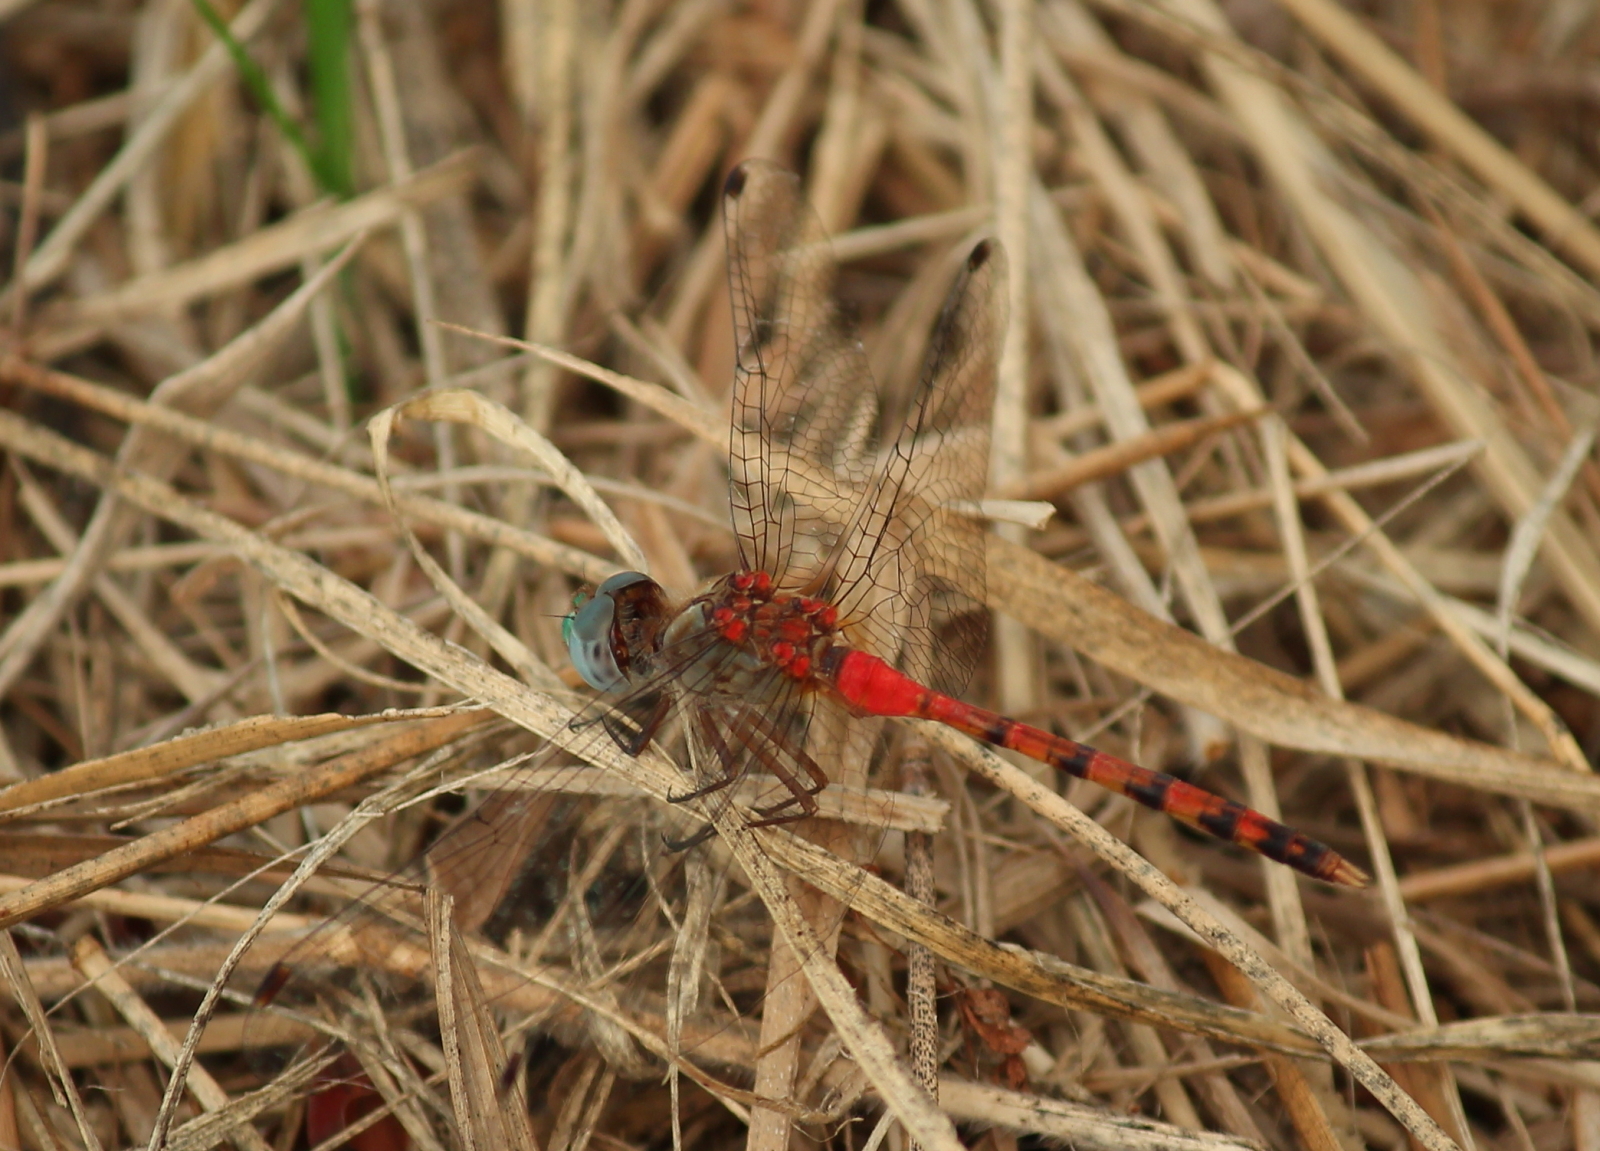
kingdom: Animalia
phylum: Arthropoda
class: Insecta
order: Odonata
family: Libellulidae
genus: Sympetrum
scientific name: Sympetrum ambiguum
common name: Blue-faced meadowhawk
